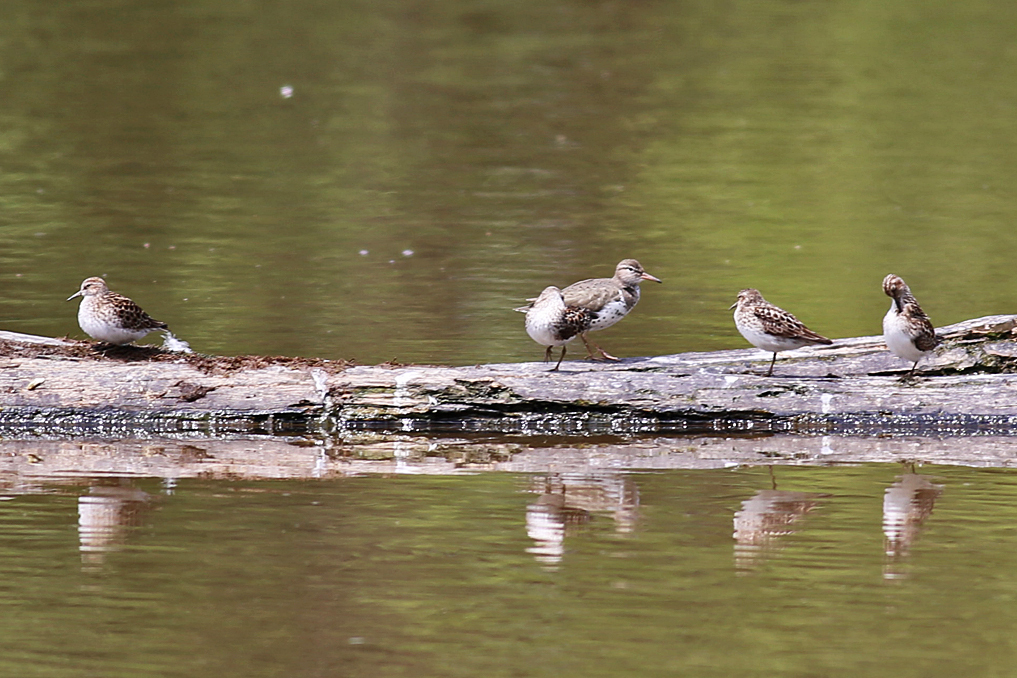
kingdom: Animalia
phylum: Chordata
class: Aves
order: Charadriiformes
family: Scolopacidae
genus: Actitis
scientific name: Actitis macularius
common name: Spotted sandpiper
